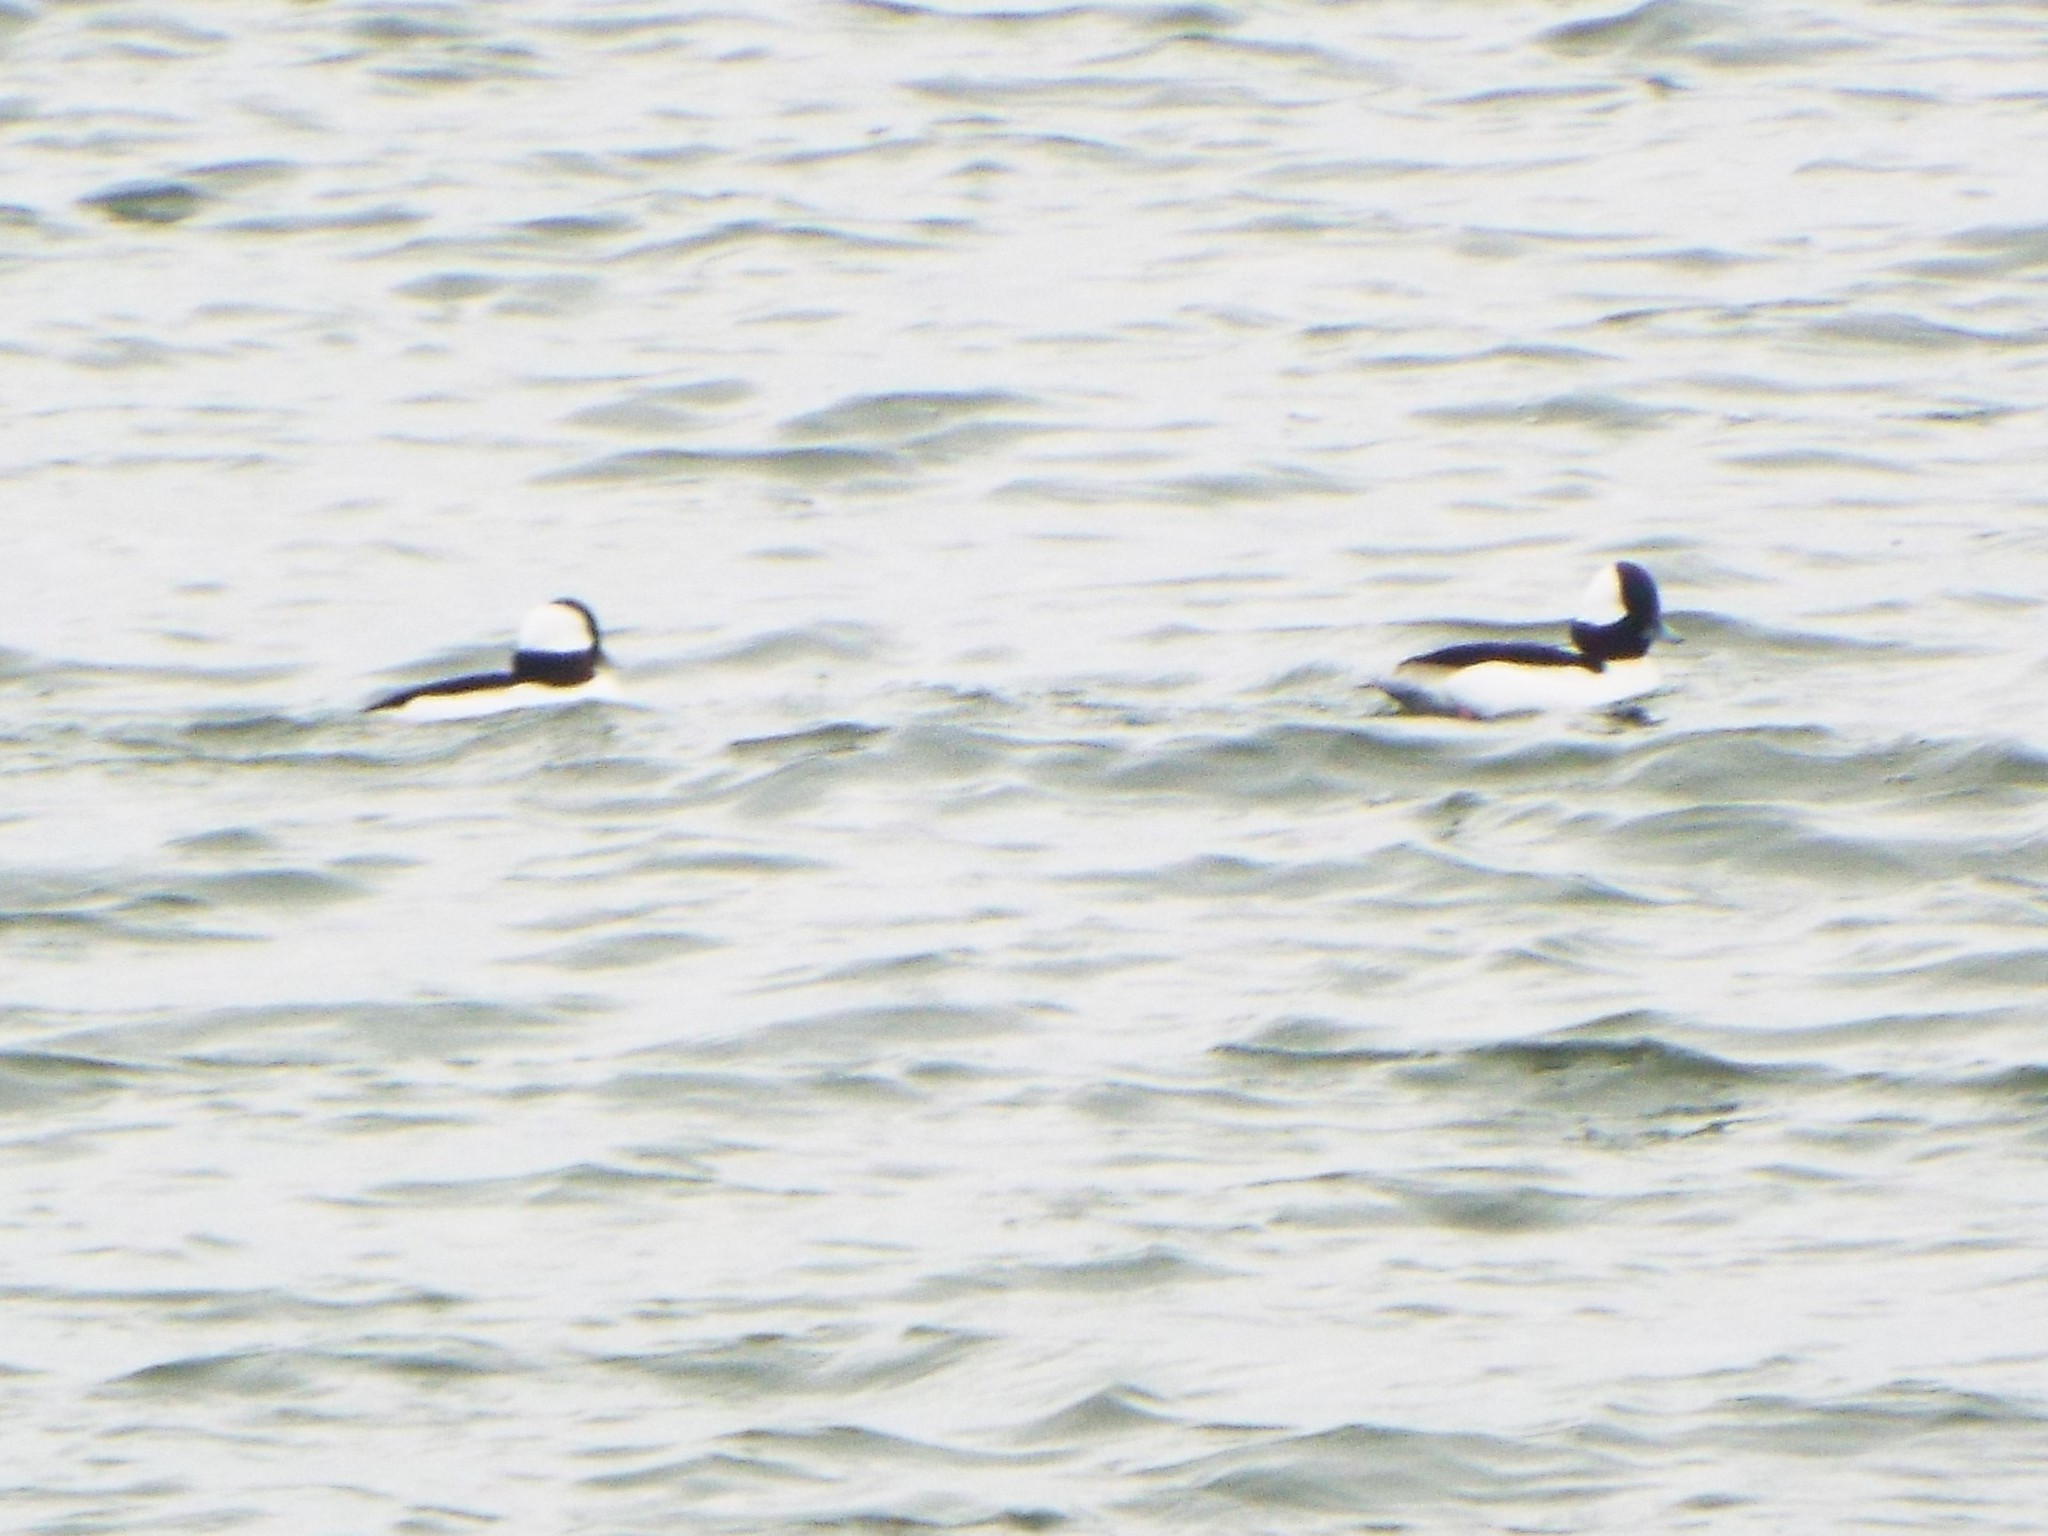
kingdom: Animalia
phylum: Chordata
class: Aves
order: Anseriformes
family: Anatidae
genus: Bucephala
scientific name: Bucephala albeola
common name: Bufflehead
